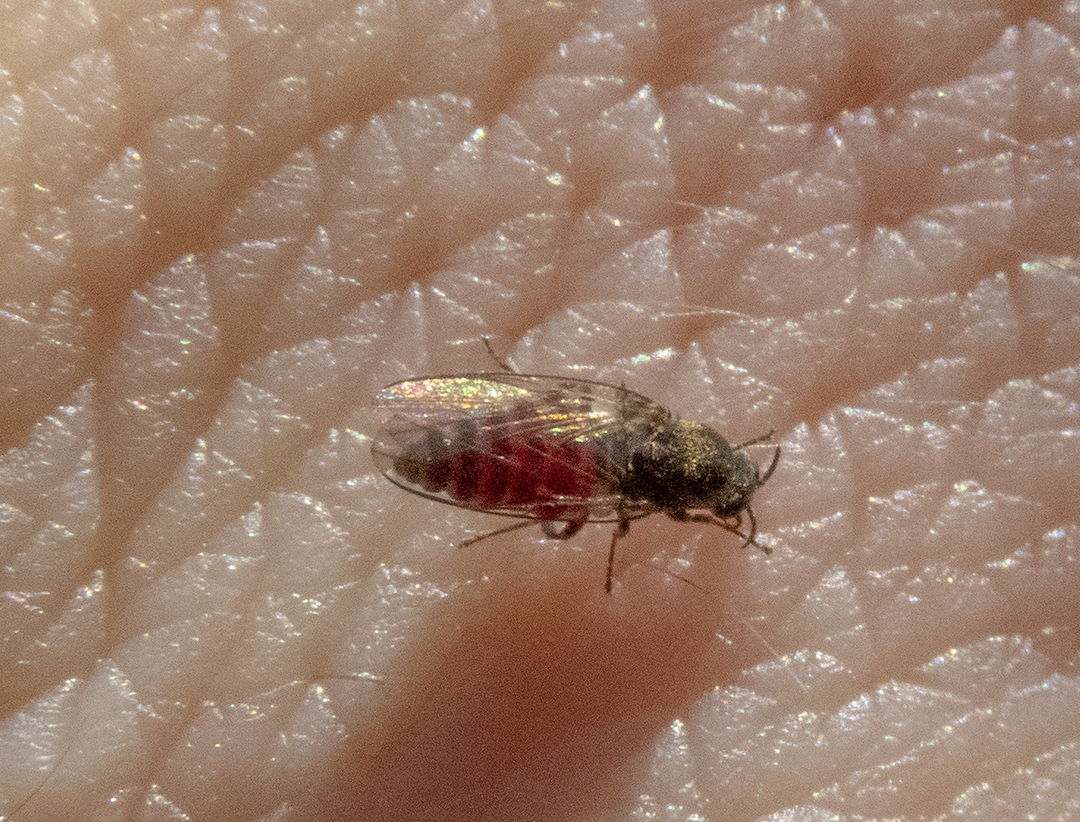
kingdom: Animalia
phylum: Arthropoda
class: Insecta
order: Diptera
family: Simuliidae
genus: Austrosimulium
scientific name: Austrosimulium australense
